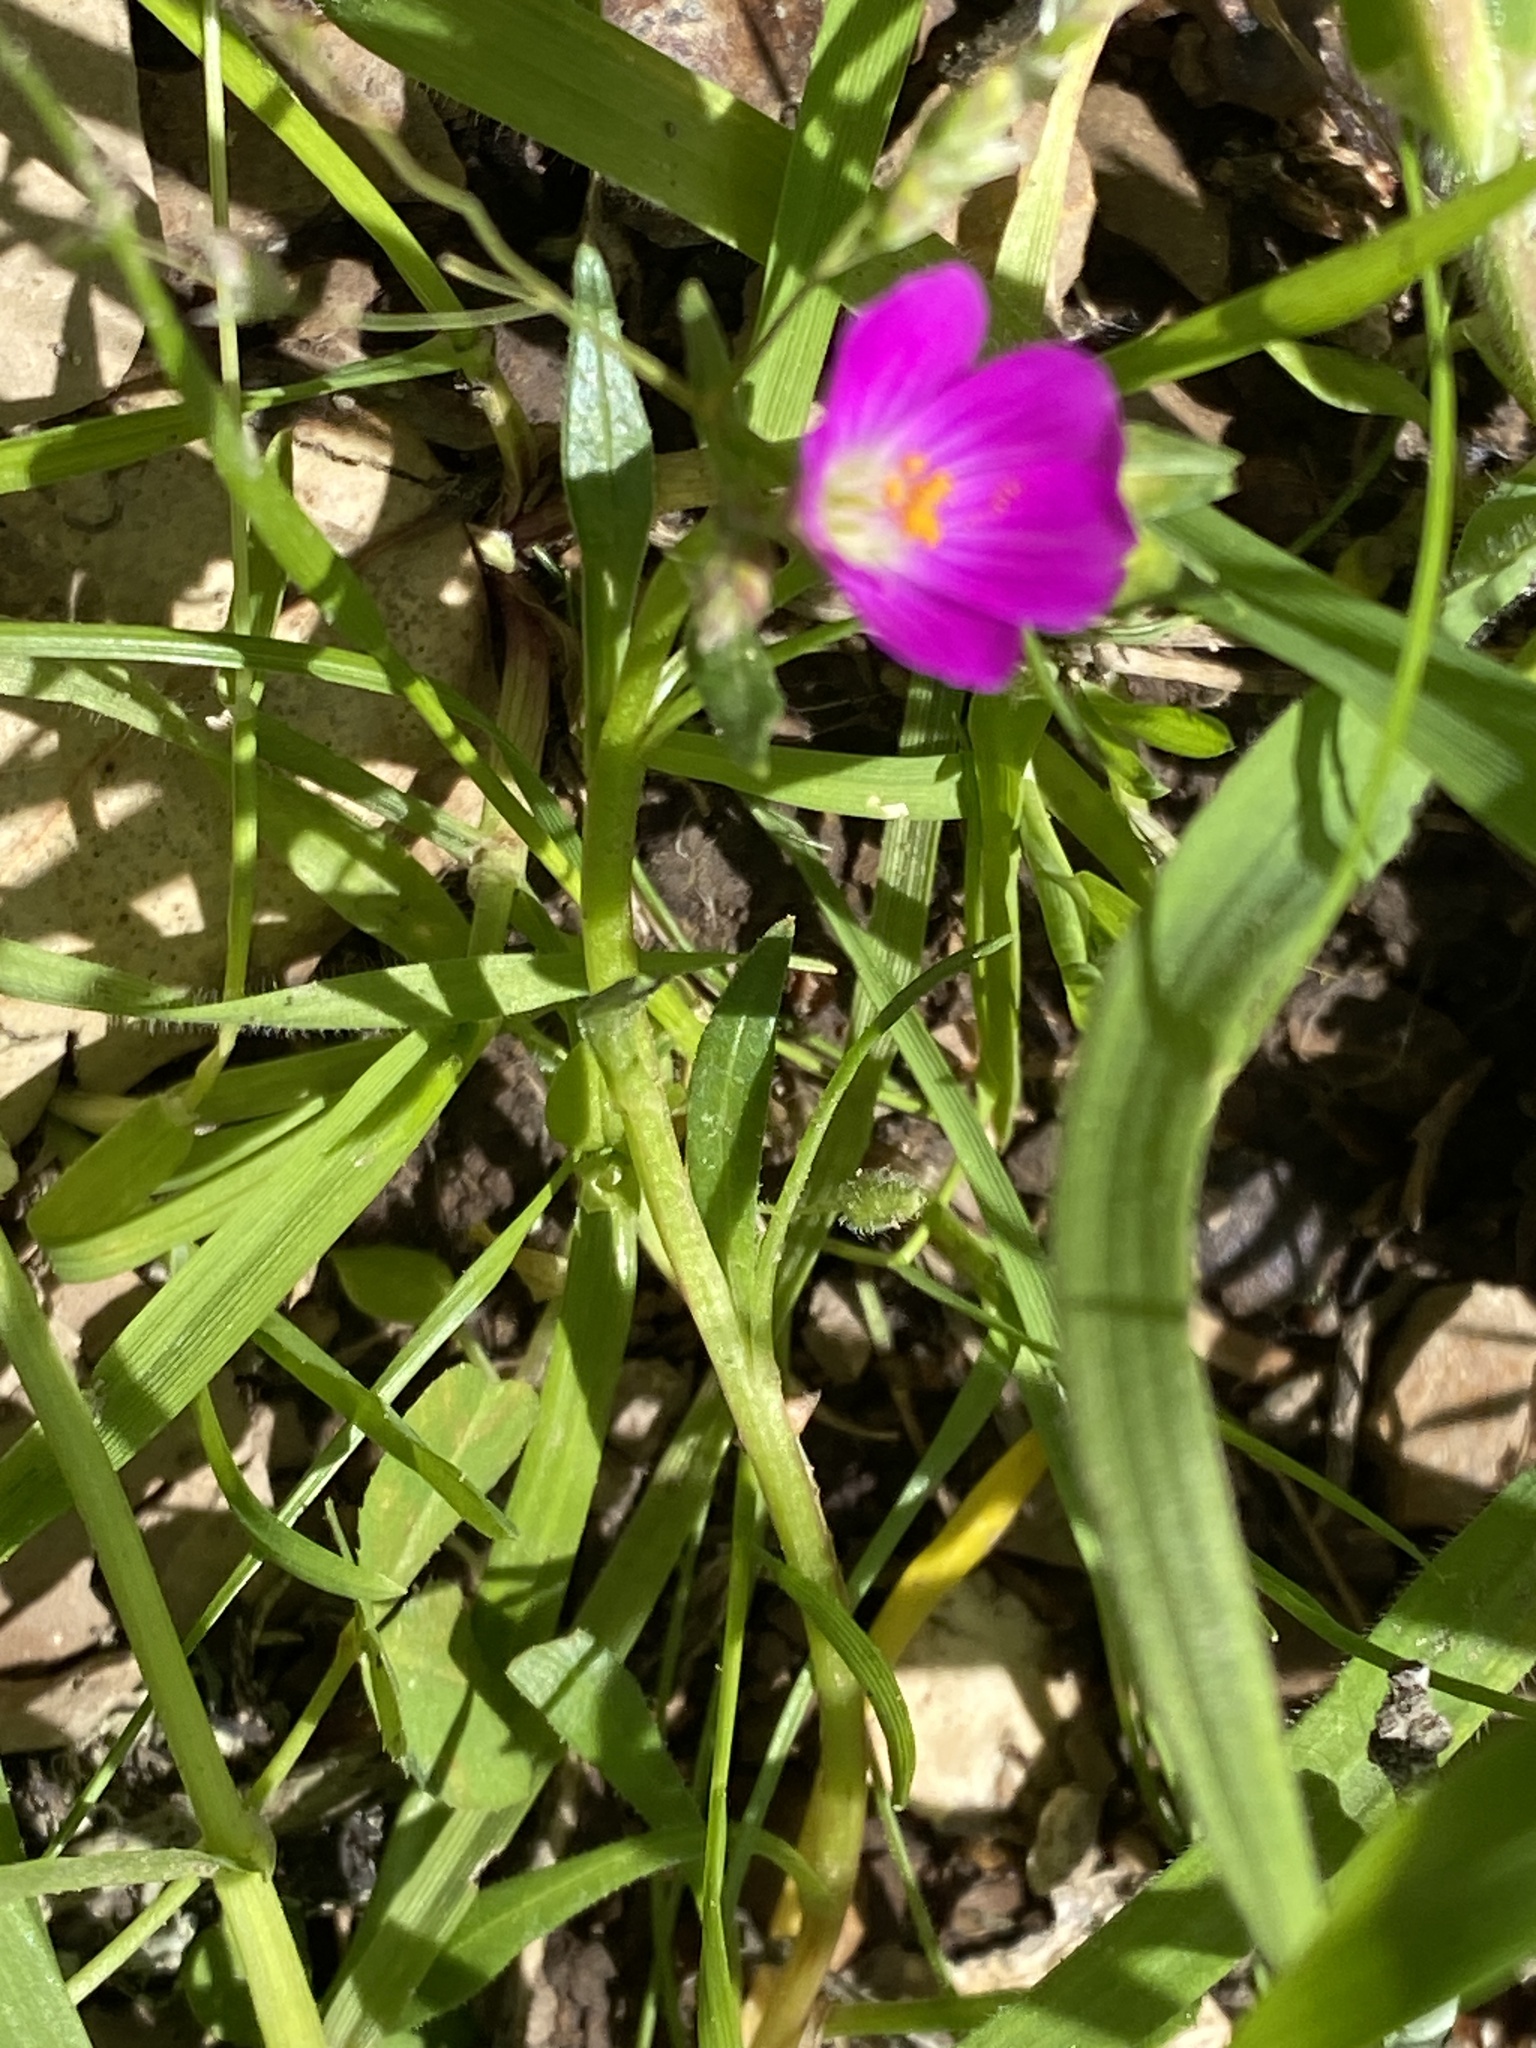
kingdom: Plantae
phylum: Tracheophyta
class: Magnoliopsida
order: Caryophyllales
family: Montiaceae
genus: Calandrinia
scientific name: Calandrinia menziesii
